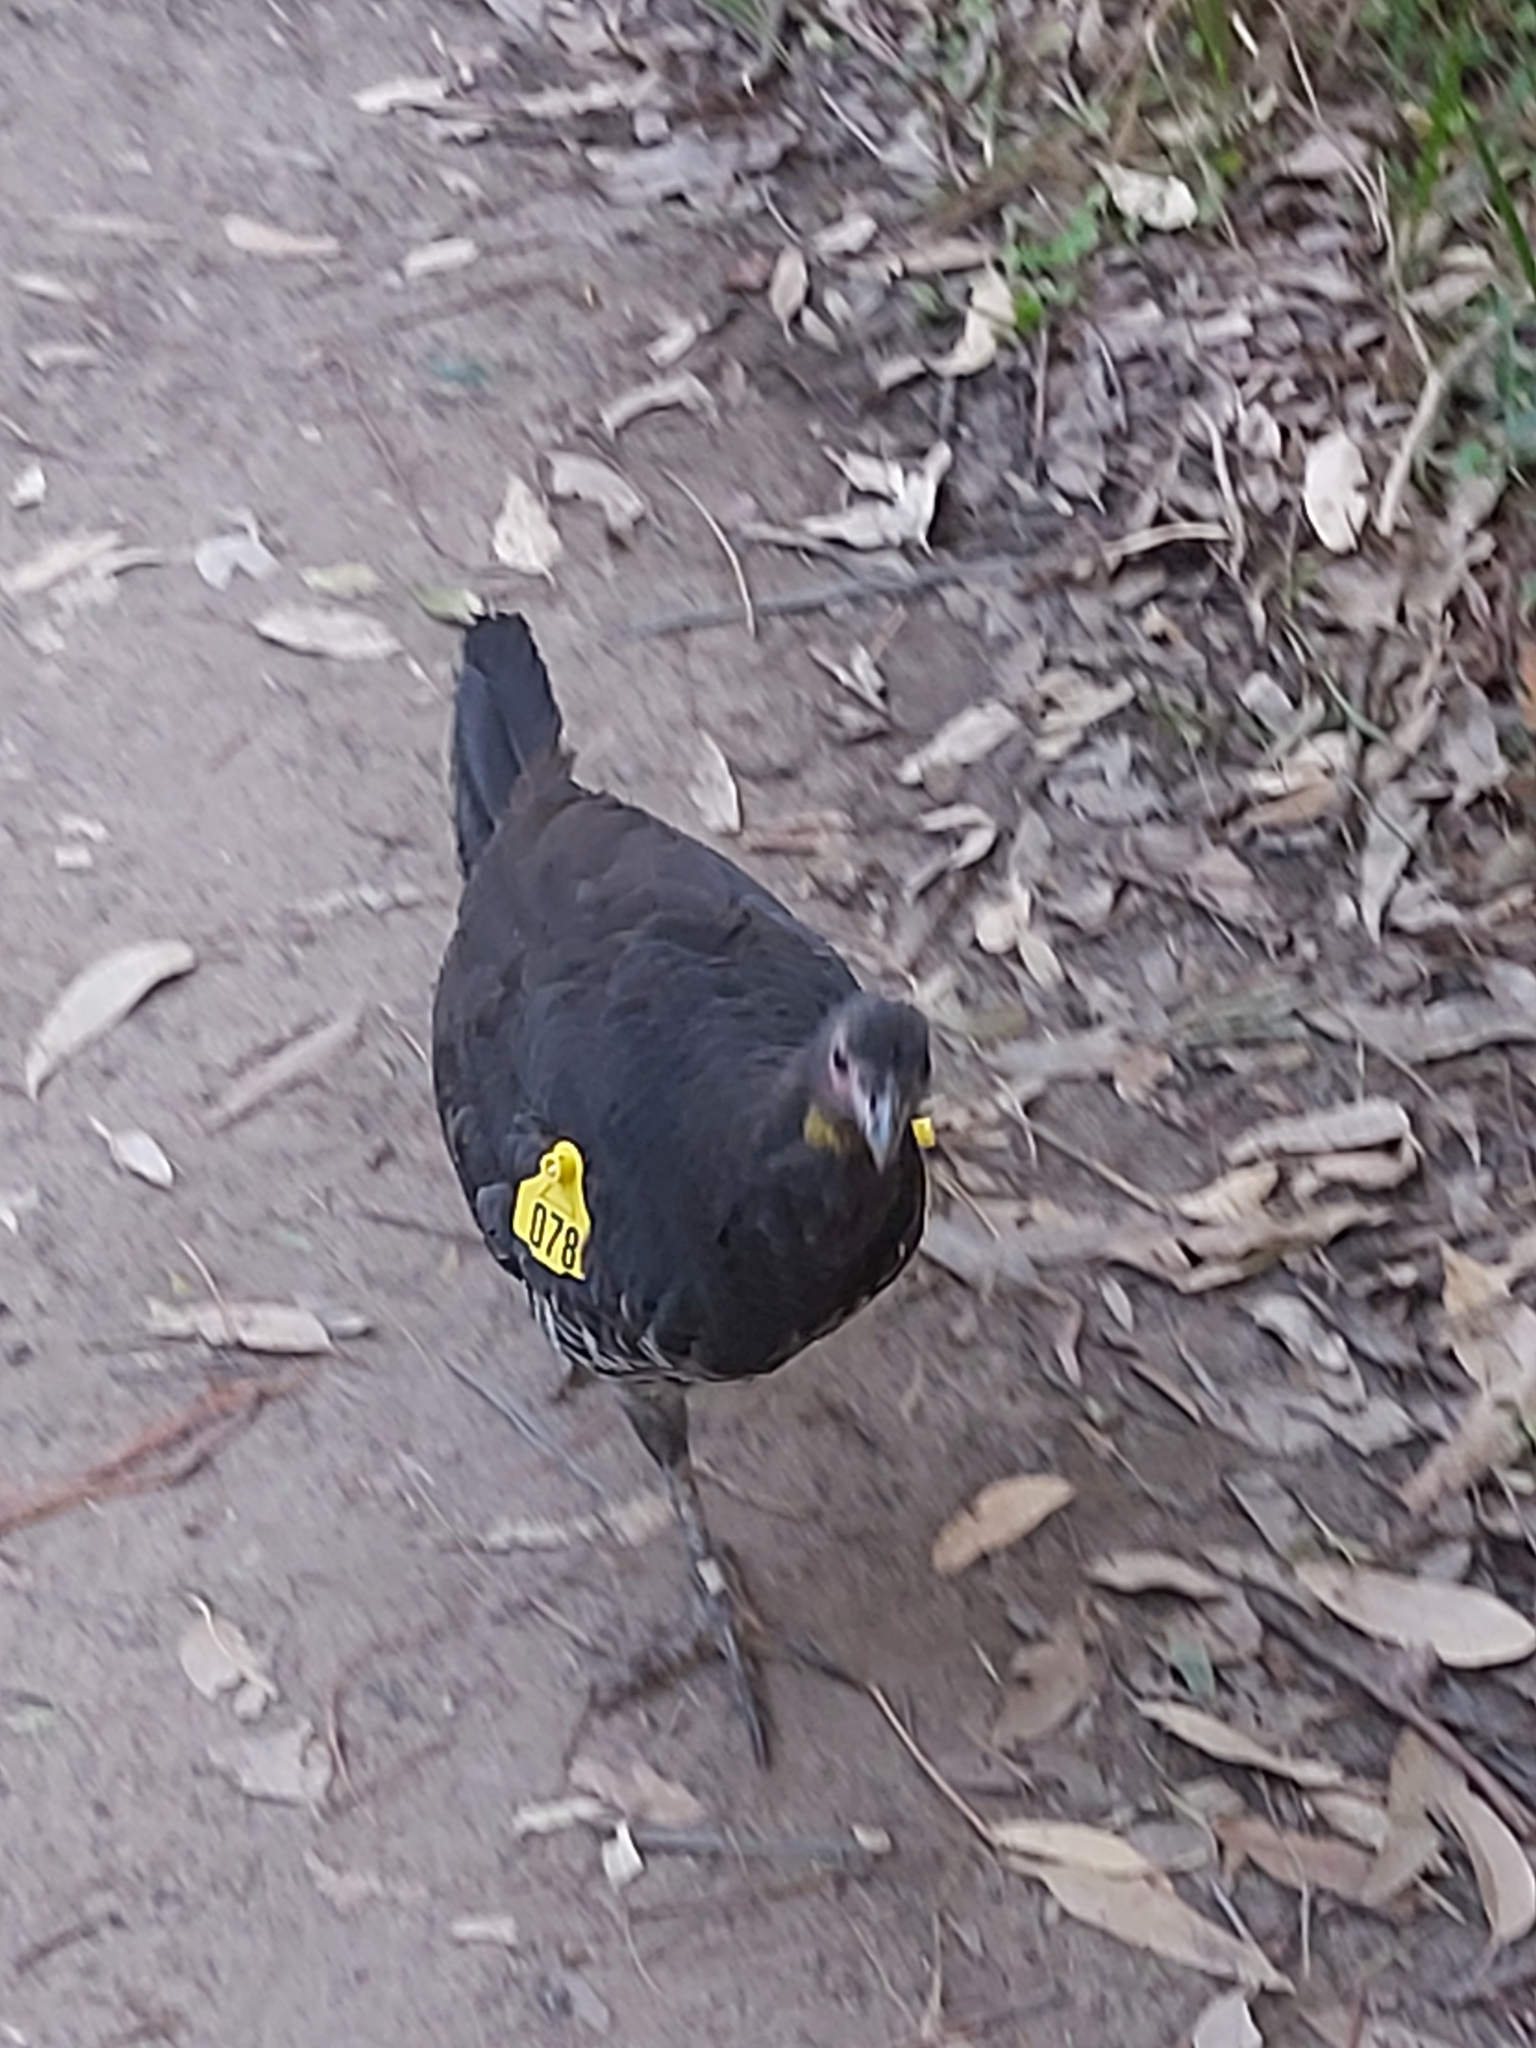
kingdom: Animalia
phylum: Chordata
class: Aves
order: Galliformes
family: Megapodiidae
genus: Alectura
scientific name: Alectura lathami
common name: Australian brushturkey
